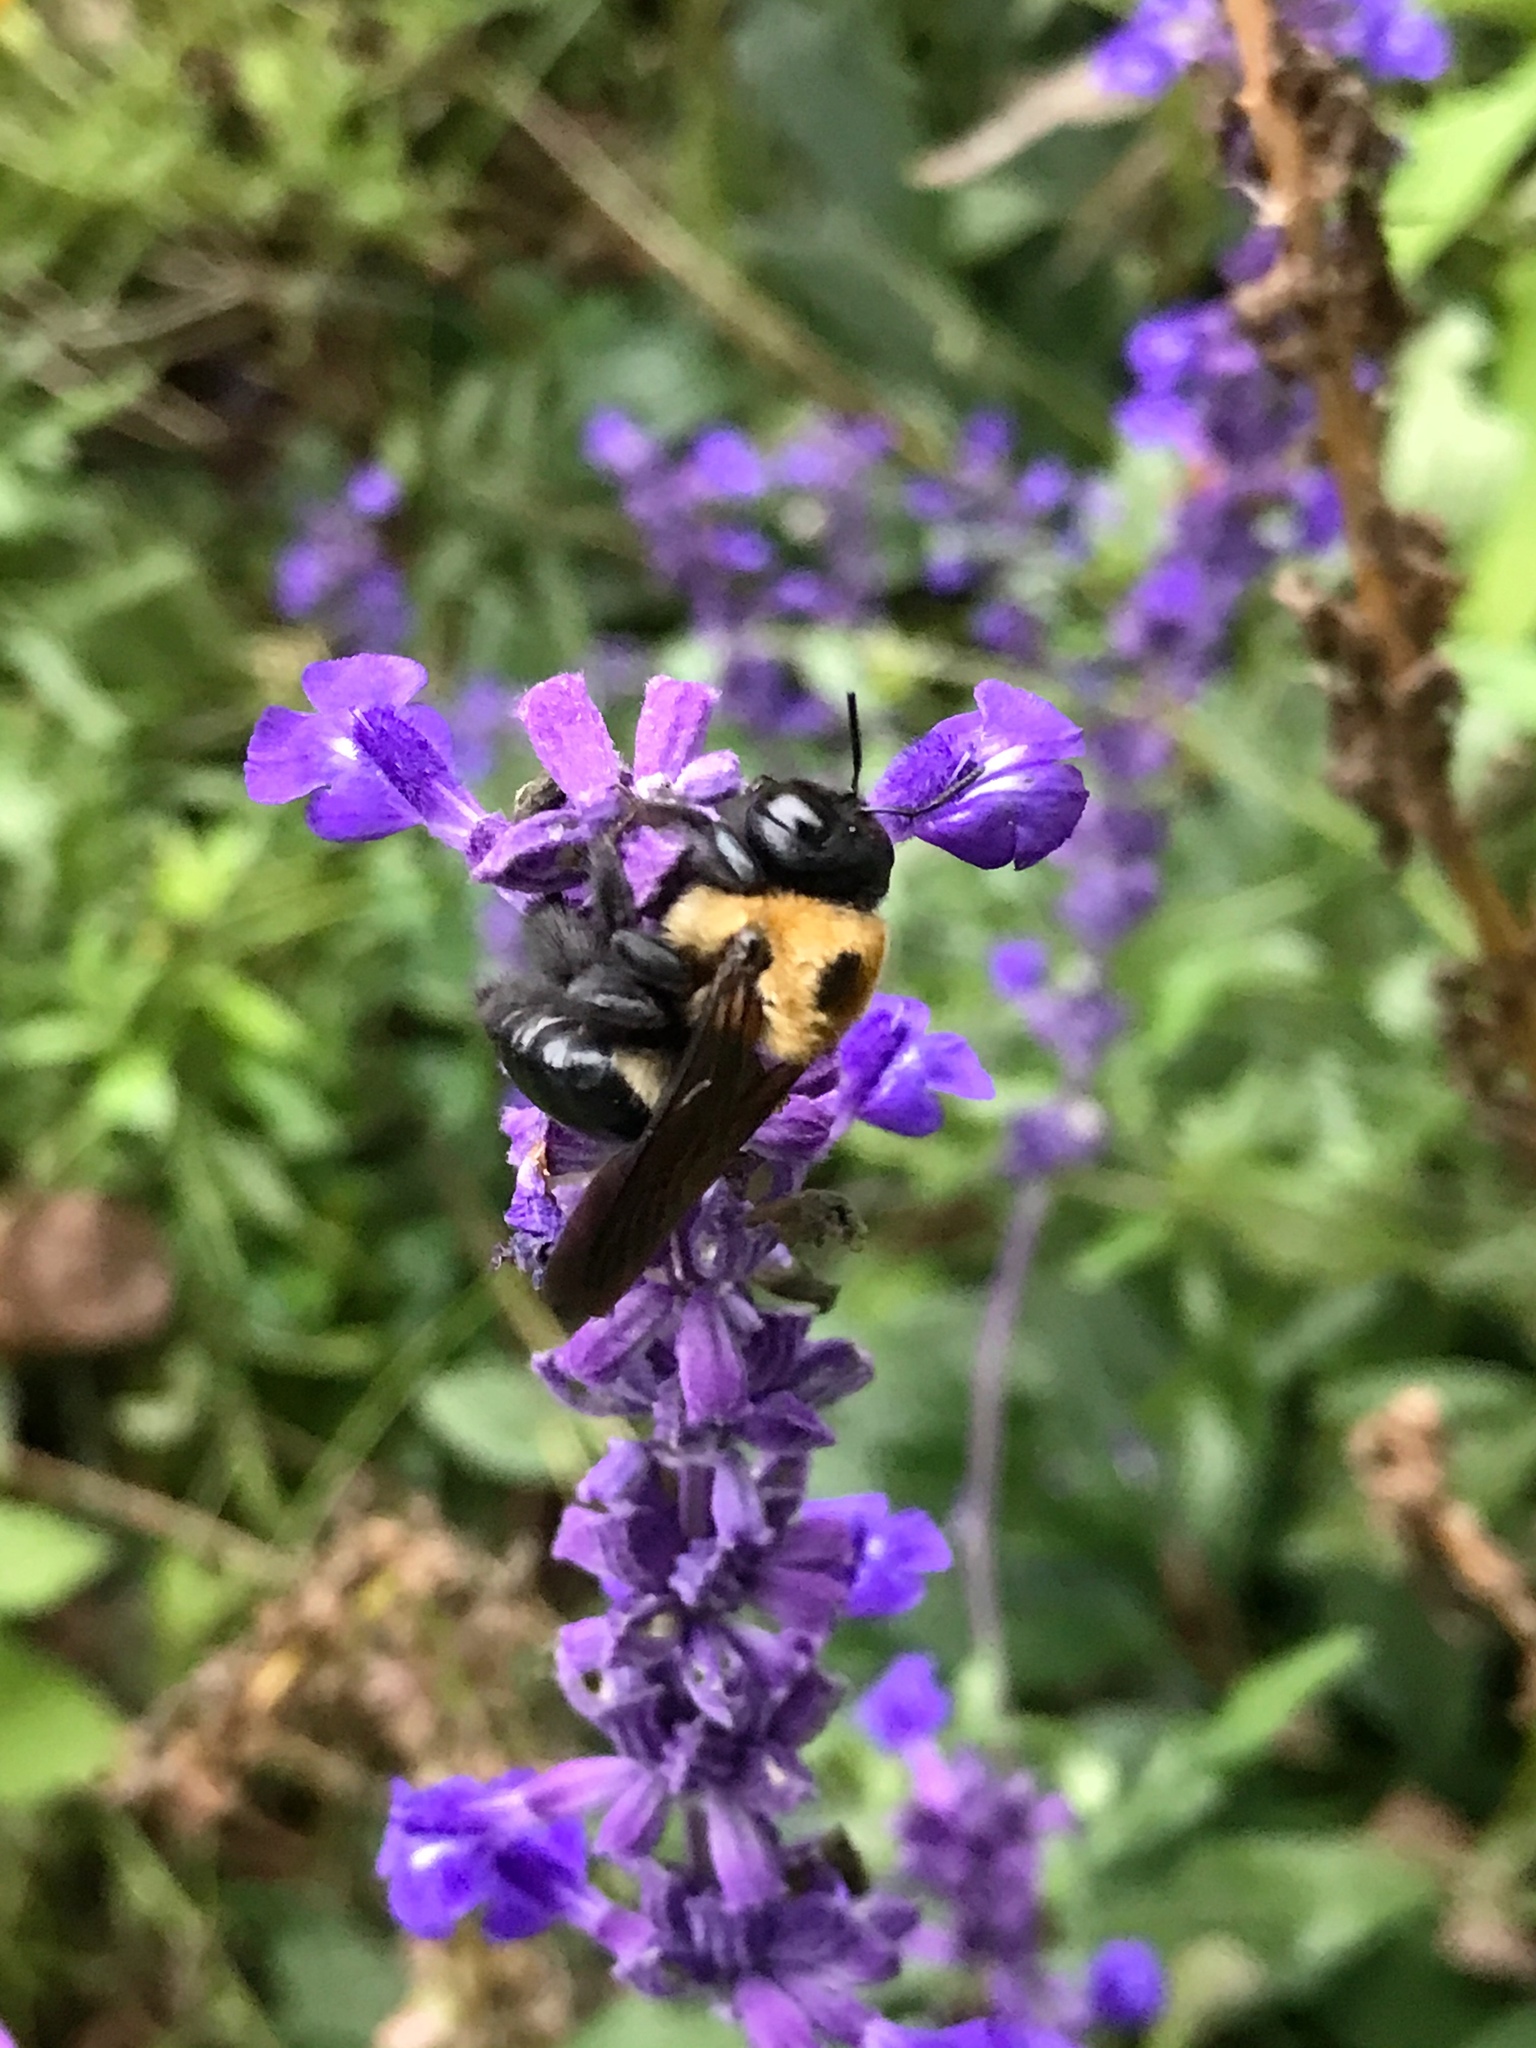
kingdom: Animalia
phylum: Arthropoda
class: Insecta
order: Hymenoptera
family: Apidae
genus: Xylocopa
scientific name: Xylocopa virginica
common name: Carpenter bee
